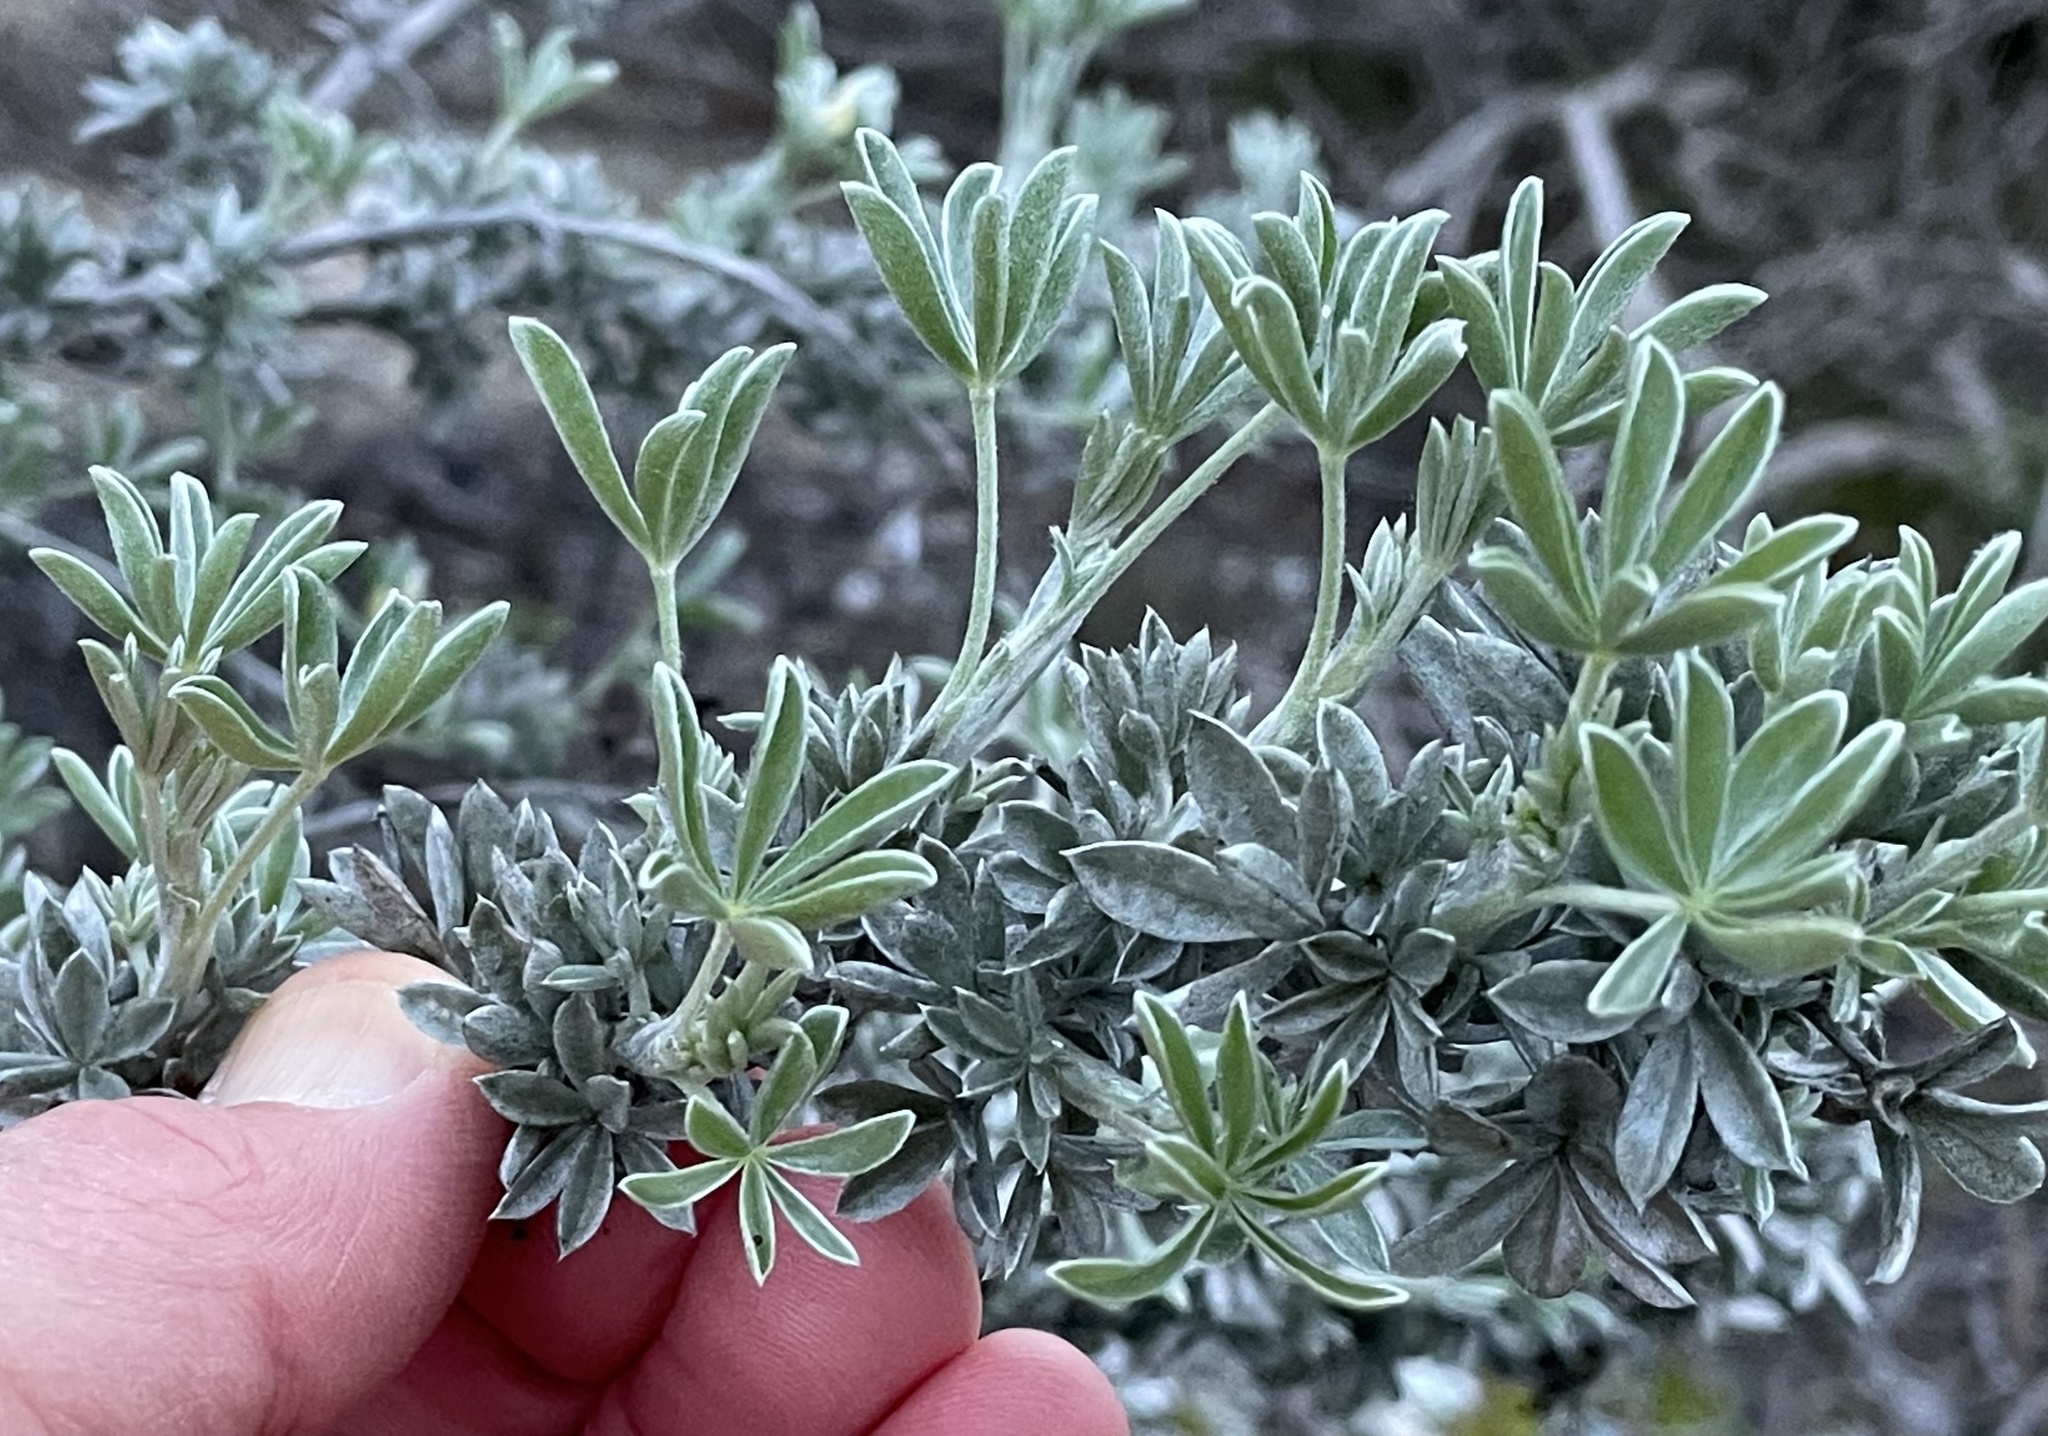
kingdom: Animalia
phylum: Arthropoda
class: Insecta
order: Diptera
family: Cecidomyiidae
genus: Dasineura
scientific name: Dasineura lupinorum
